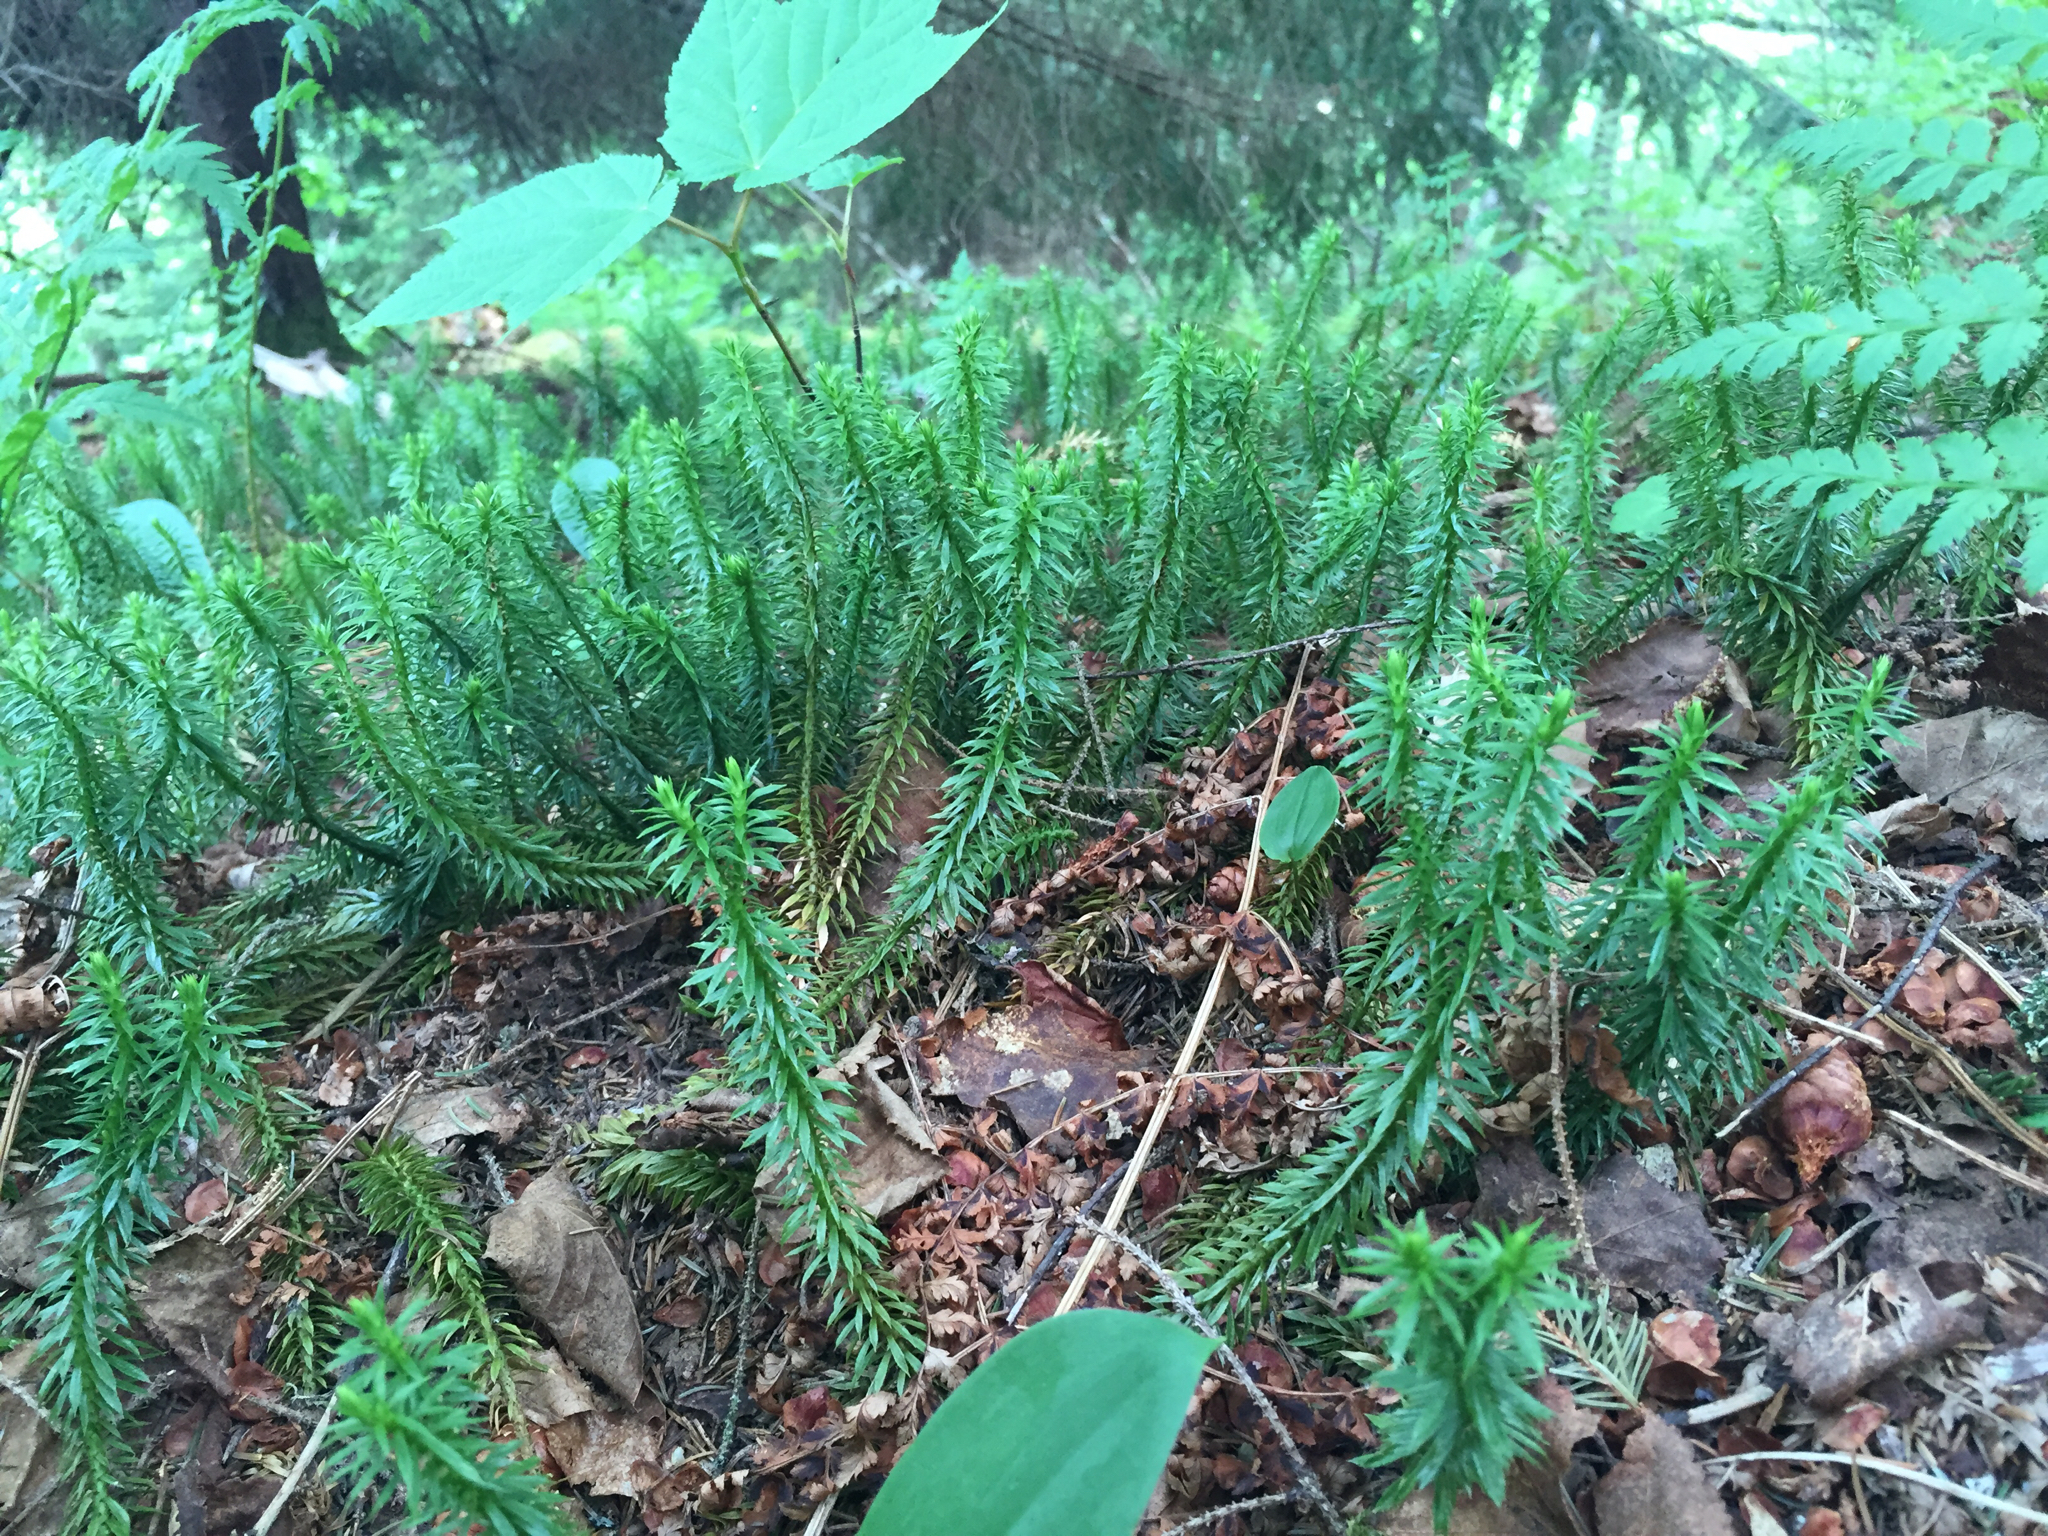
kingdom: Plantae
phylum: Tracheophyta
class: Lycopodiopsida
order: Lycopodiales
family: Lycopodiaceae
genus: Huperzia
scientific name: Huperzia lucidula
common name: Shining clubmoss
